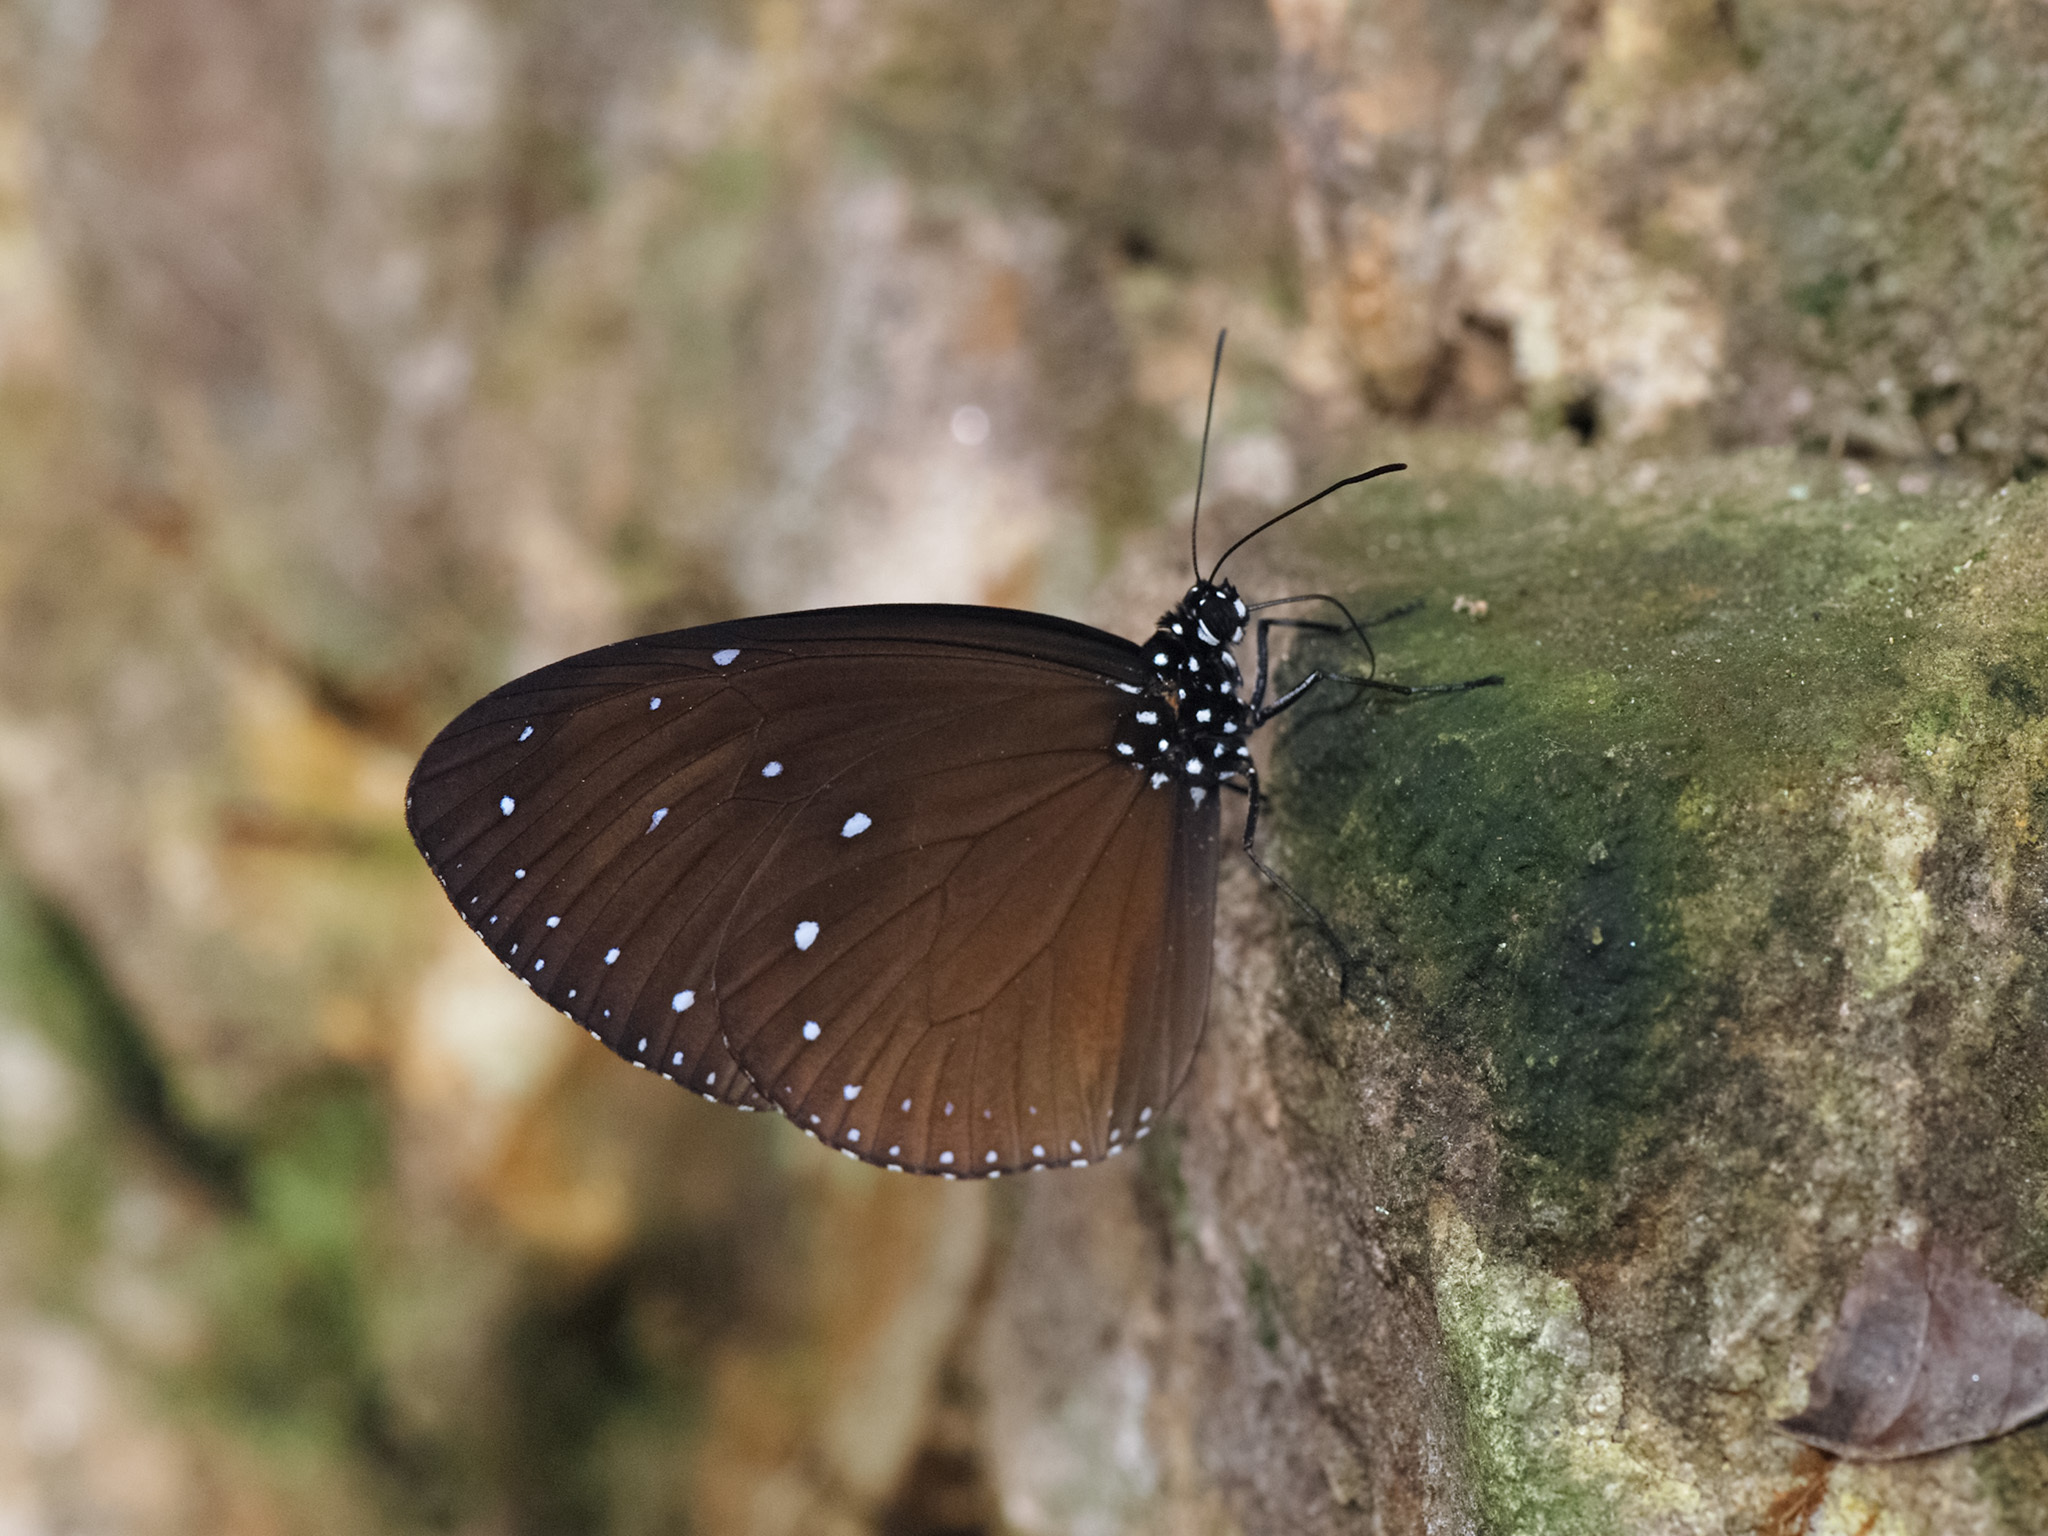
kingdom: Animalia
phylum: Arthropoda
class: Insecta
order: Lepidoptera
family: Nymphalidae
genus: Euploea
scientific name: Euploea tulliolus
